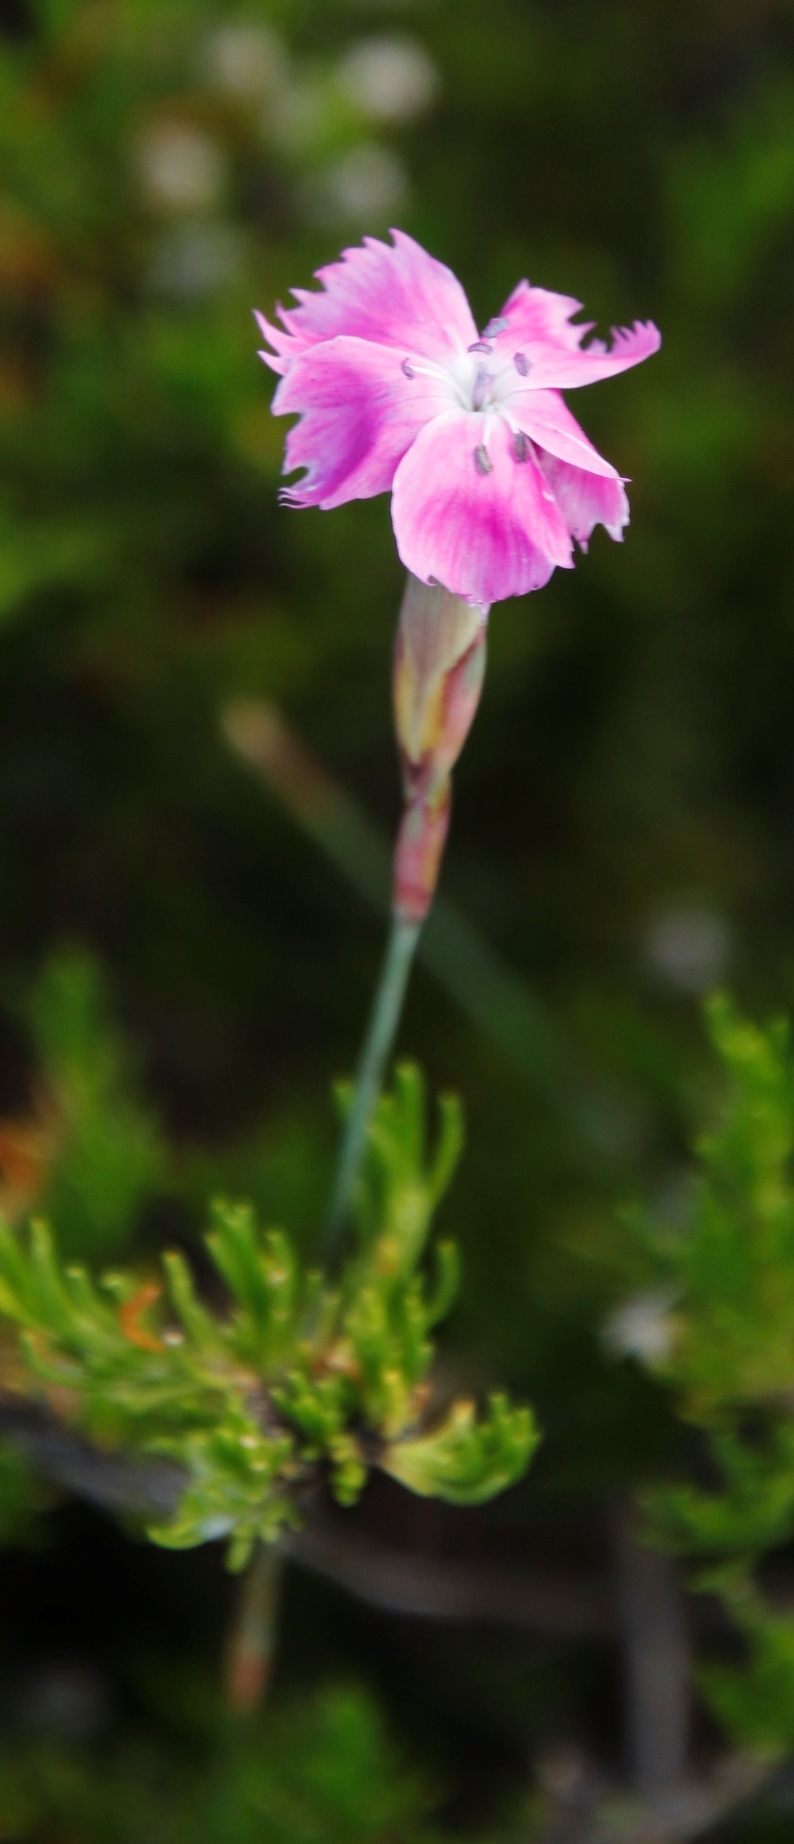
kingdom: Plantae
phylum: Tracheophyta
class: Magnoliopsida
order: Caryophyllales
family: Caryophyllaceae
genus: Dianthus
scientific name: Dianthus basuticus
